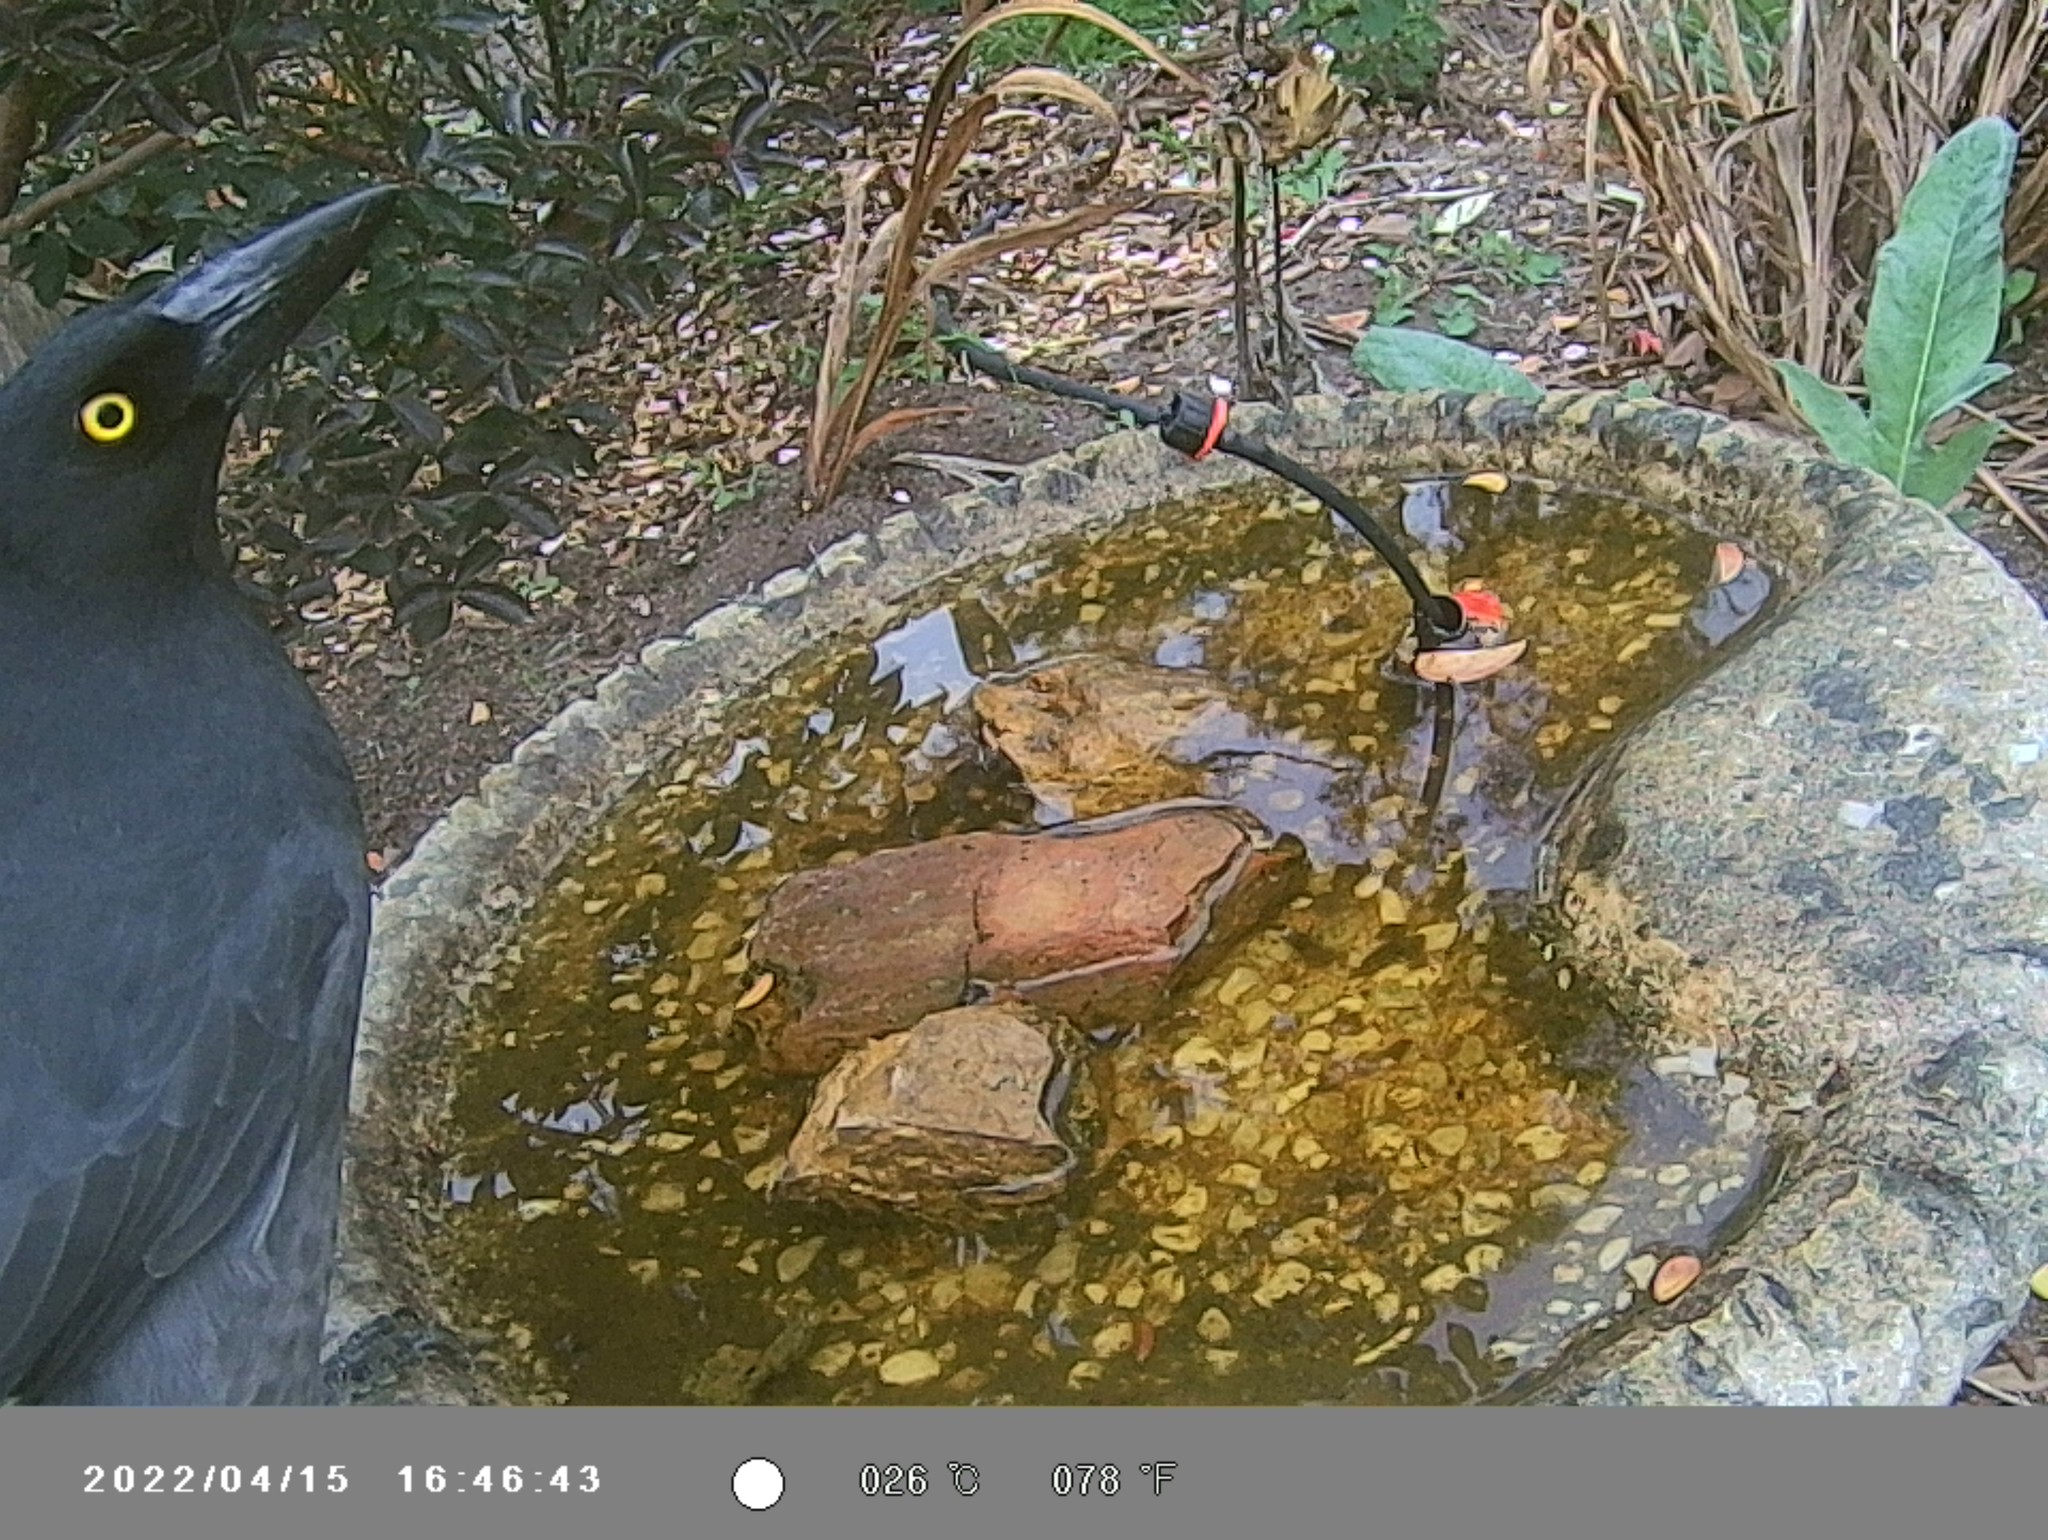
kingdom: Animalia
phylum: Chordata
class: Aves
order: Passeriformes
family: Cracticidae
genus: Strepera
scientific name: Strepera graculina
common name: Pied currawong
